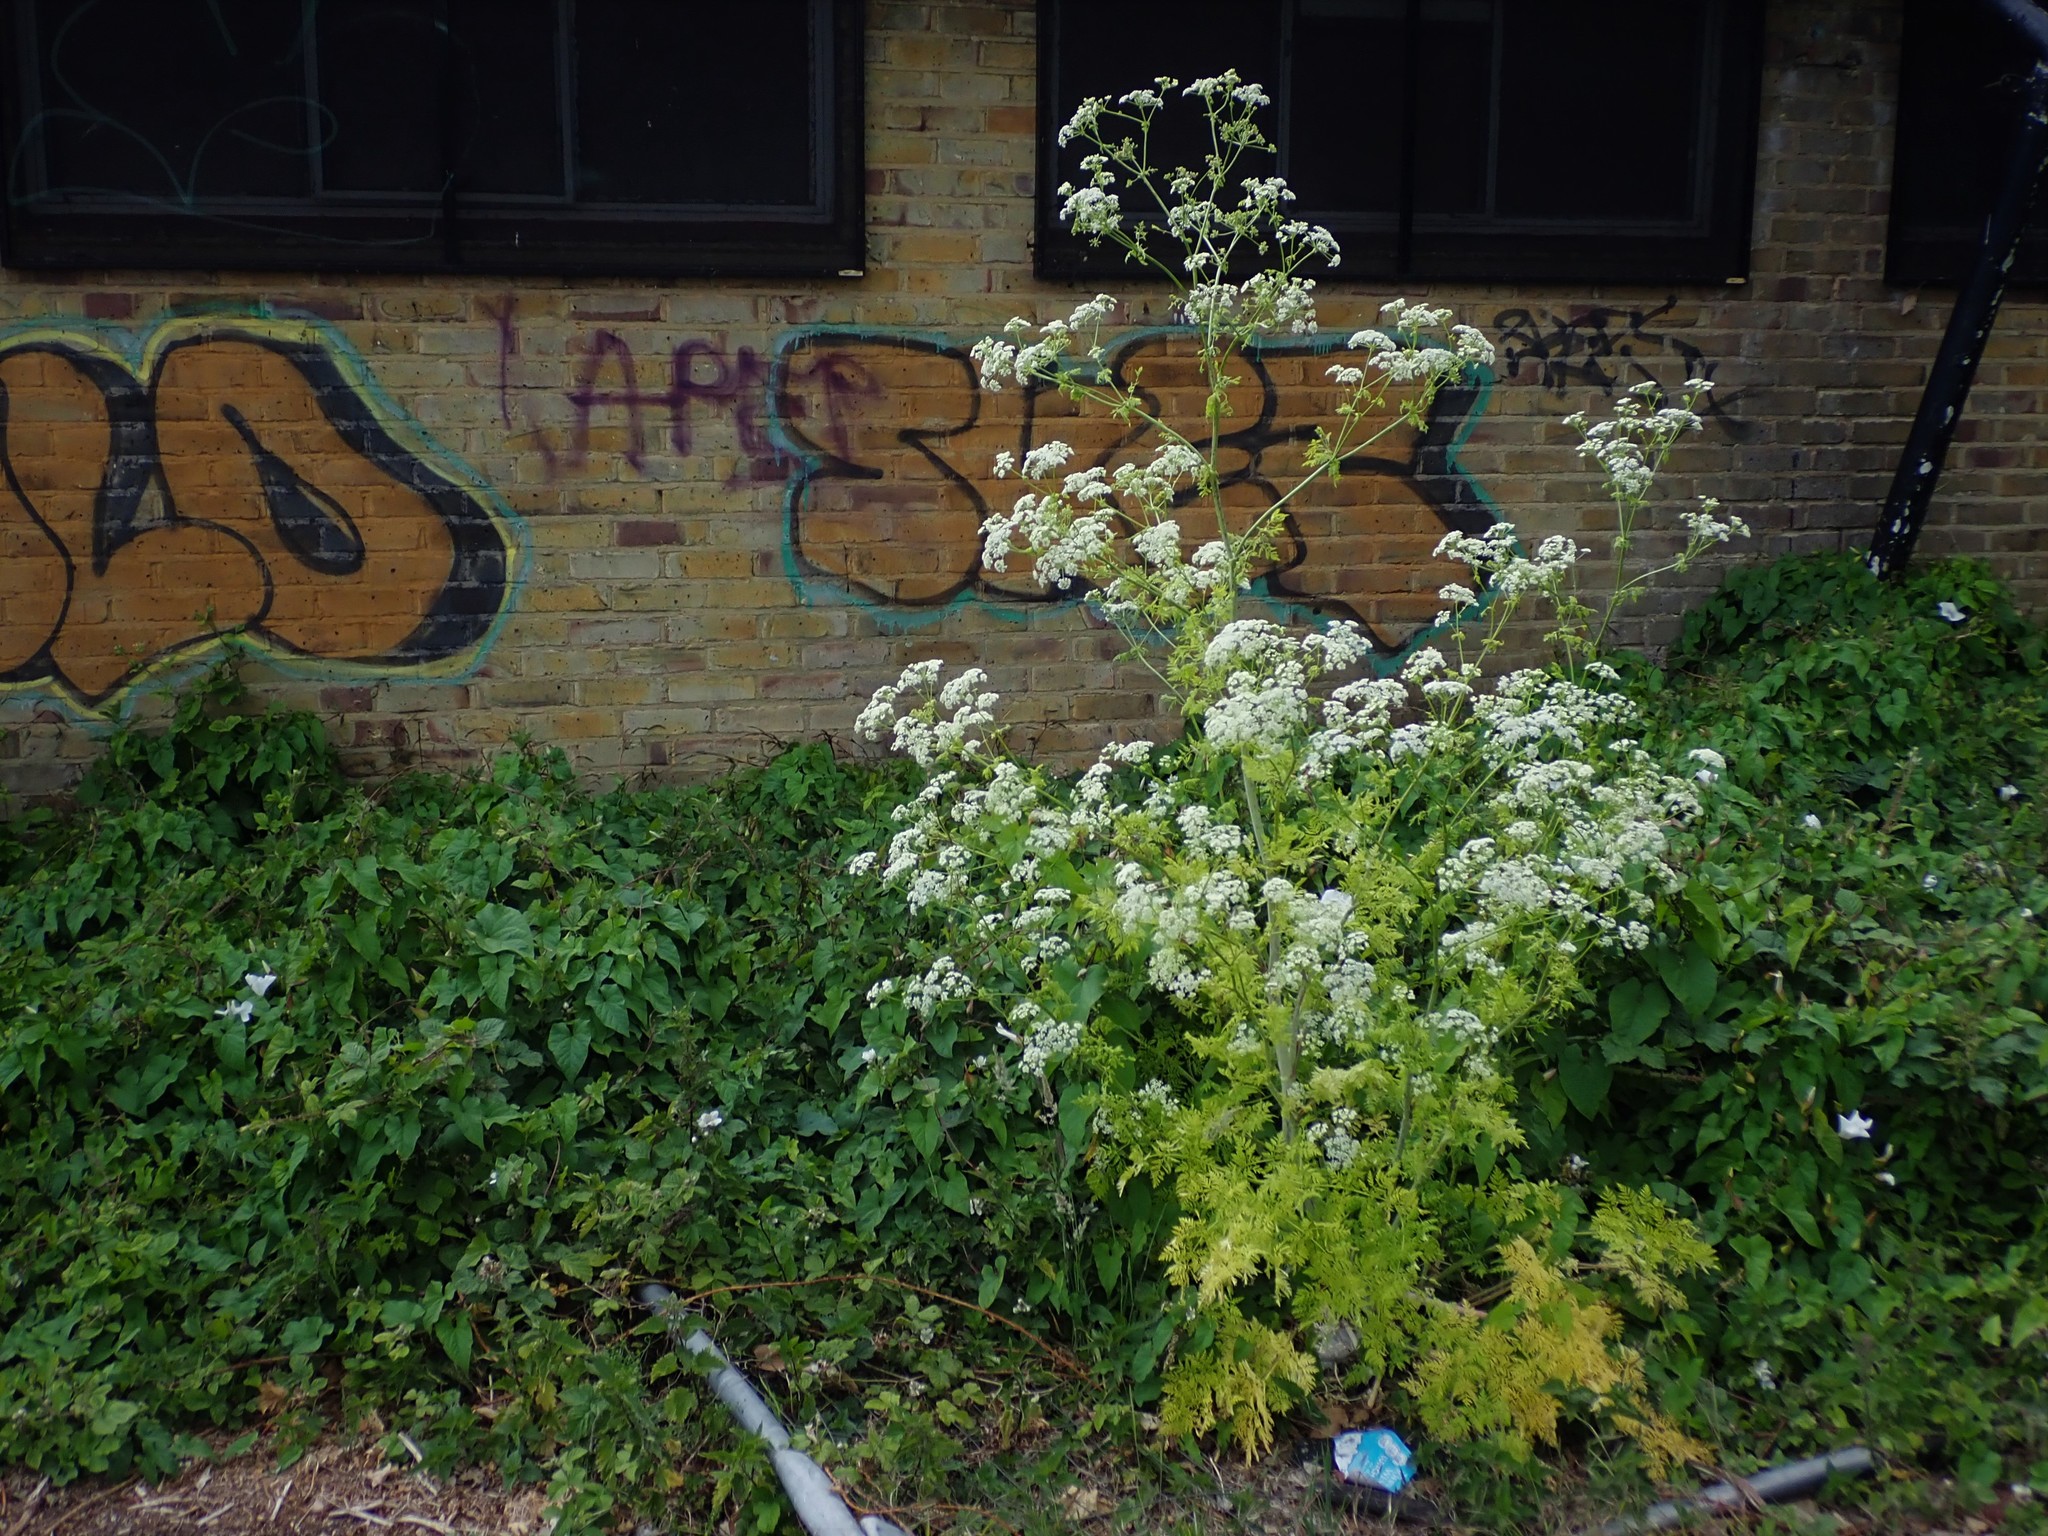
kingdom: Plantae
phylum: Tracheophyta
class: Magnoliopsida
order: Apiales
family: Apiaceae
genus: Conium
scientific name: Conium maculatum
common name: Hemlock
